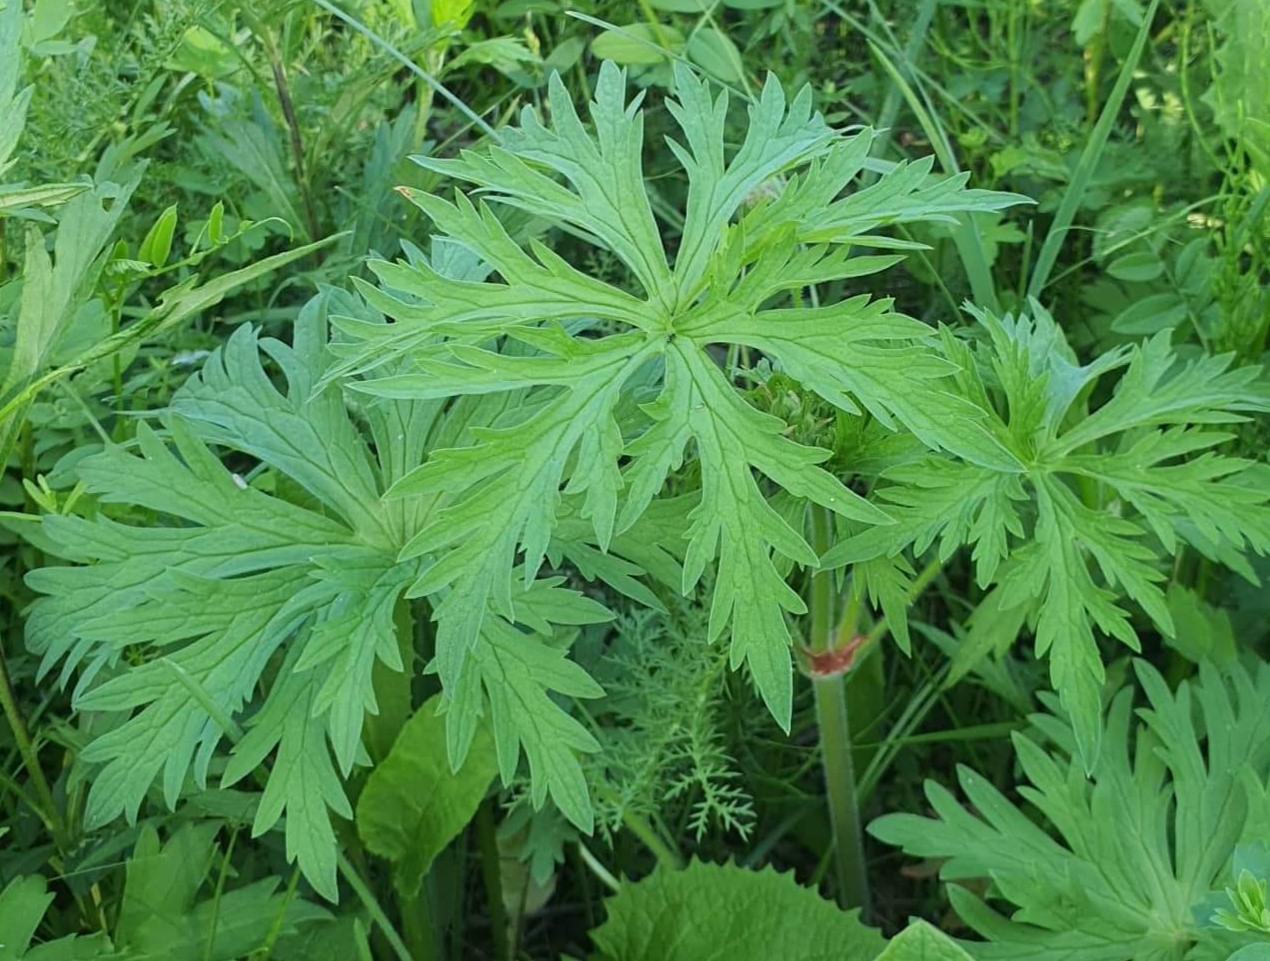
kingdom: Plantae
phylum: Tracheophyta
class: Magnoliopsida
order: Geraniales
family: Geraniaceae
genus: Geranium
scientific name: Geranium pratense
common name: Meadow crane's-bill
